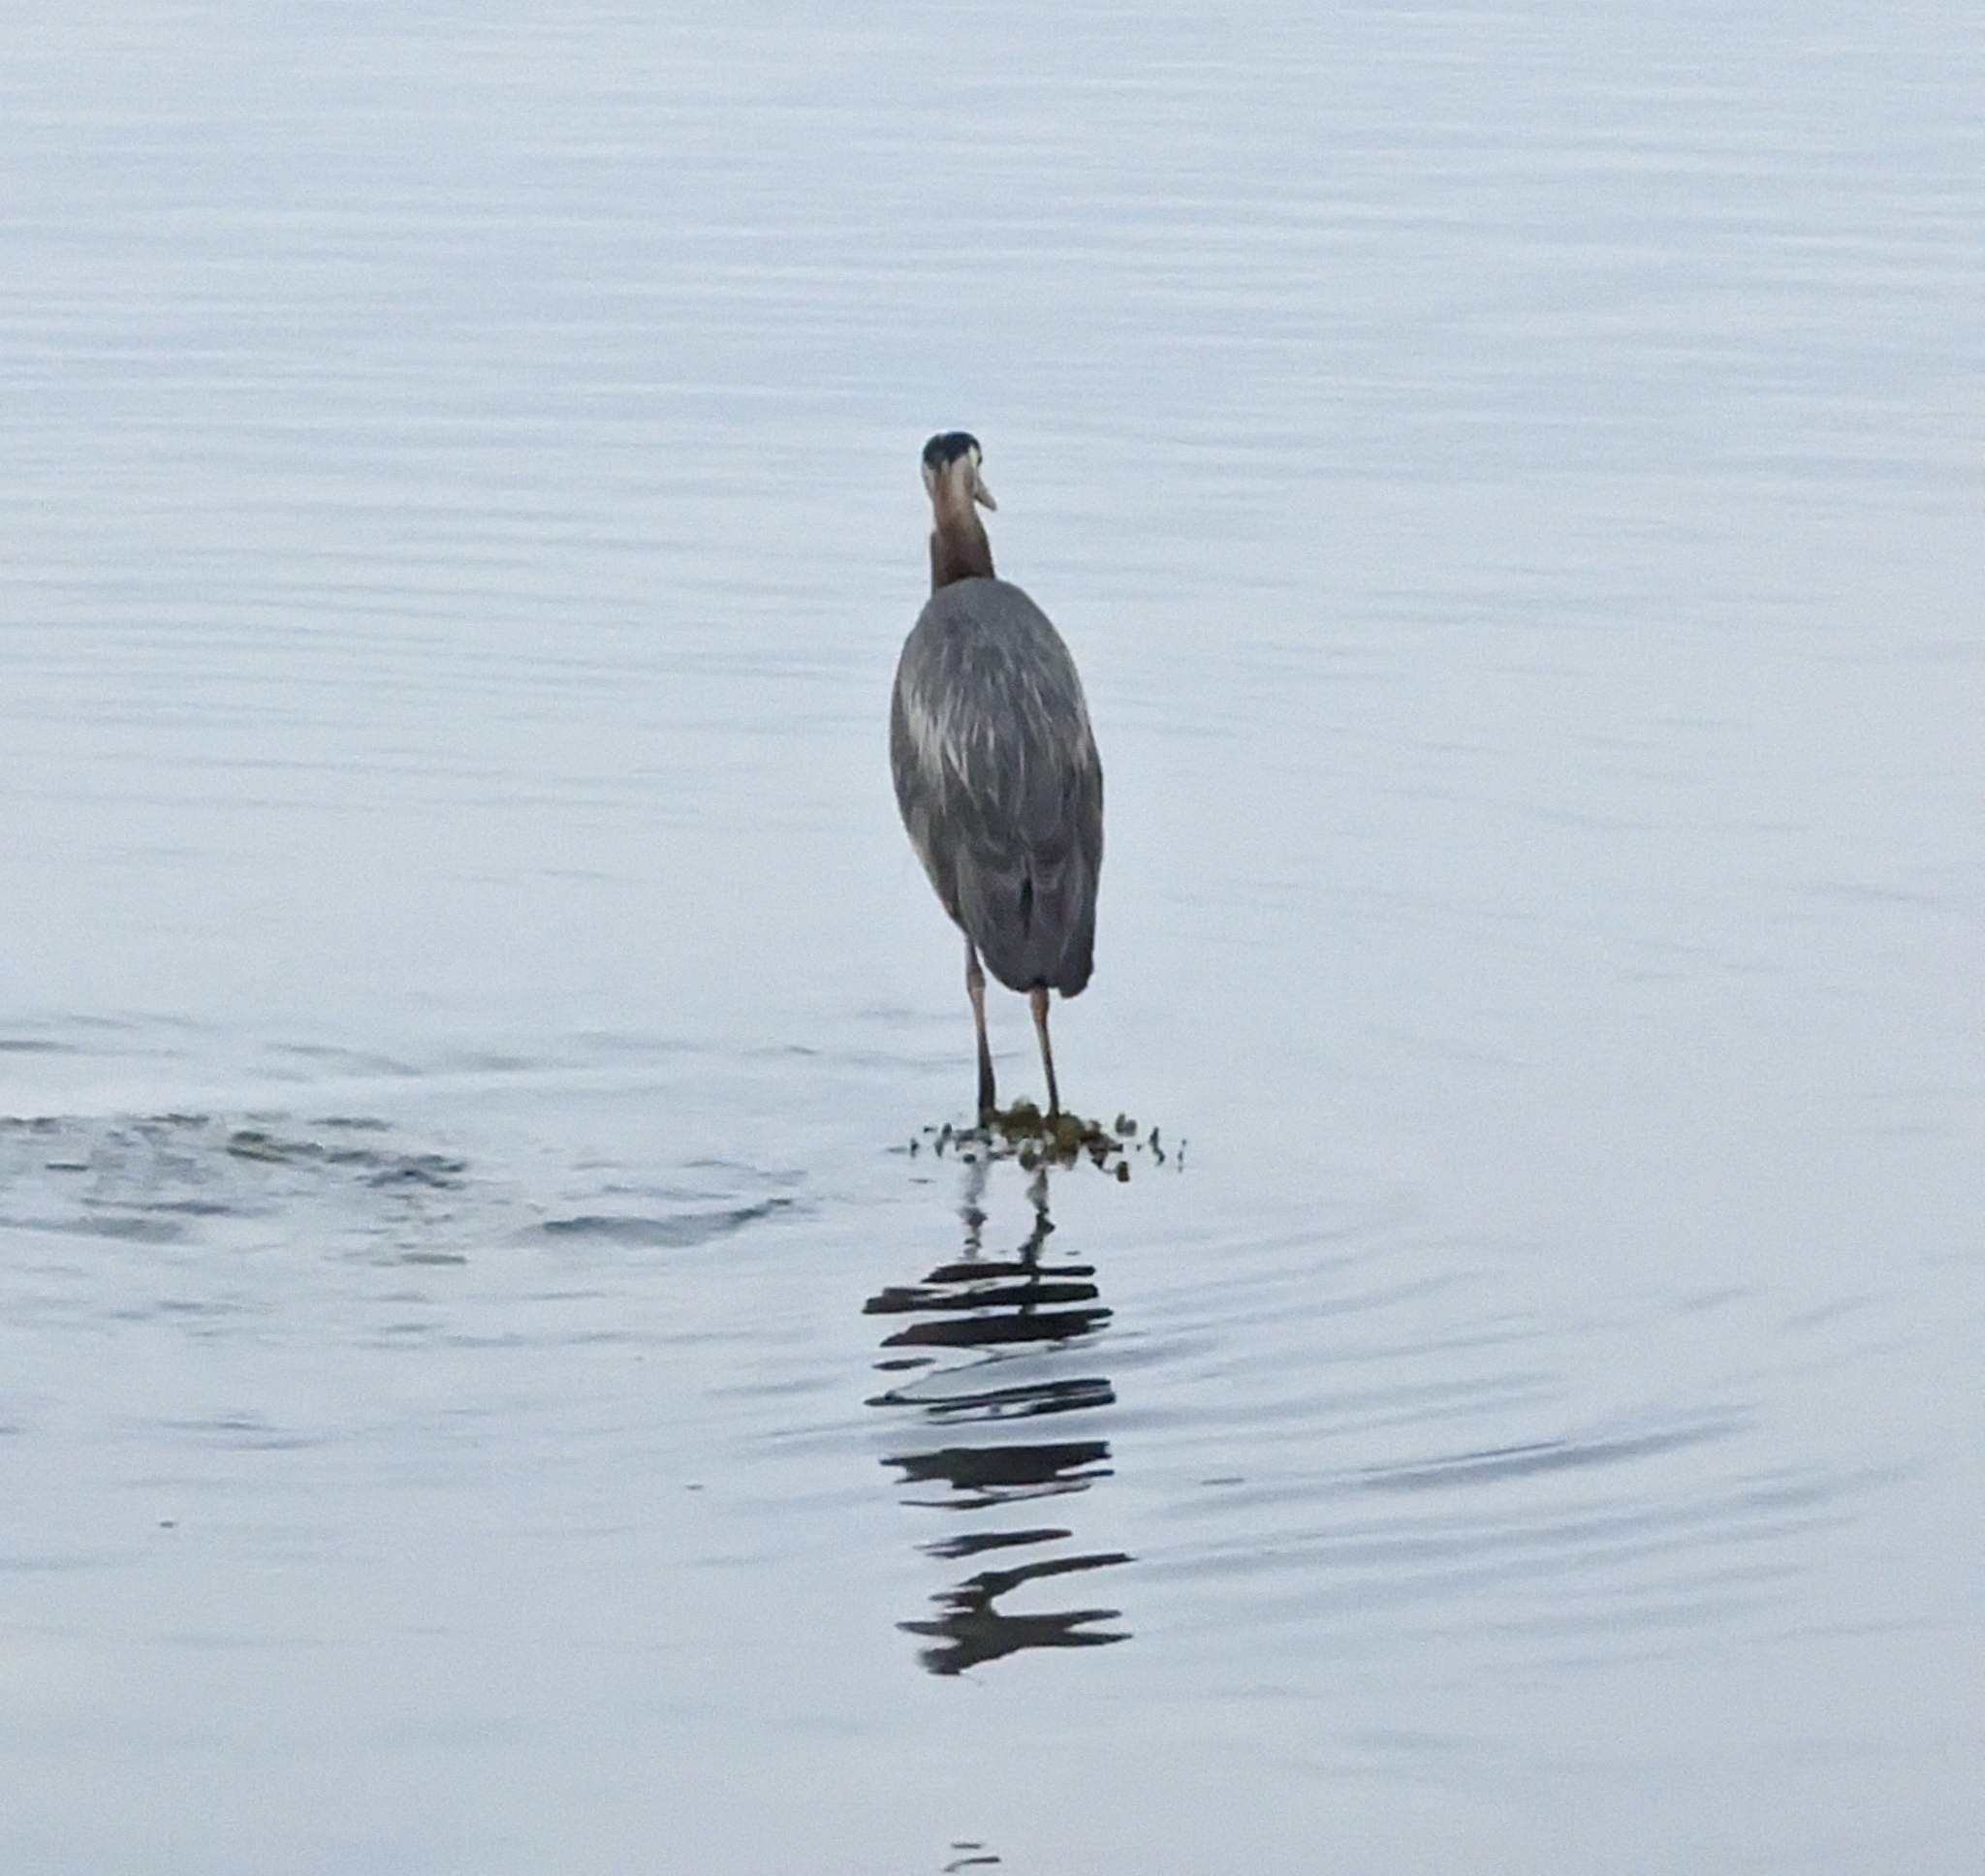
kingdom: Animalia
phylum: Chordata
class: Aves
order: Pelecaniformes
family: Ardeidae
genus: Ardea
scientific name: Ardea herodias
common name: Great blue heron
